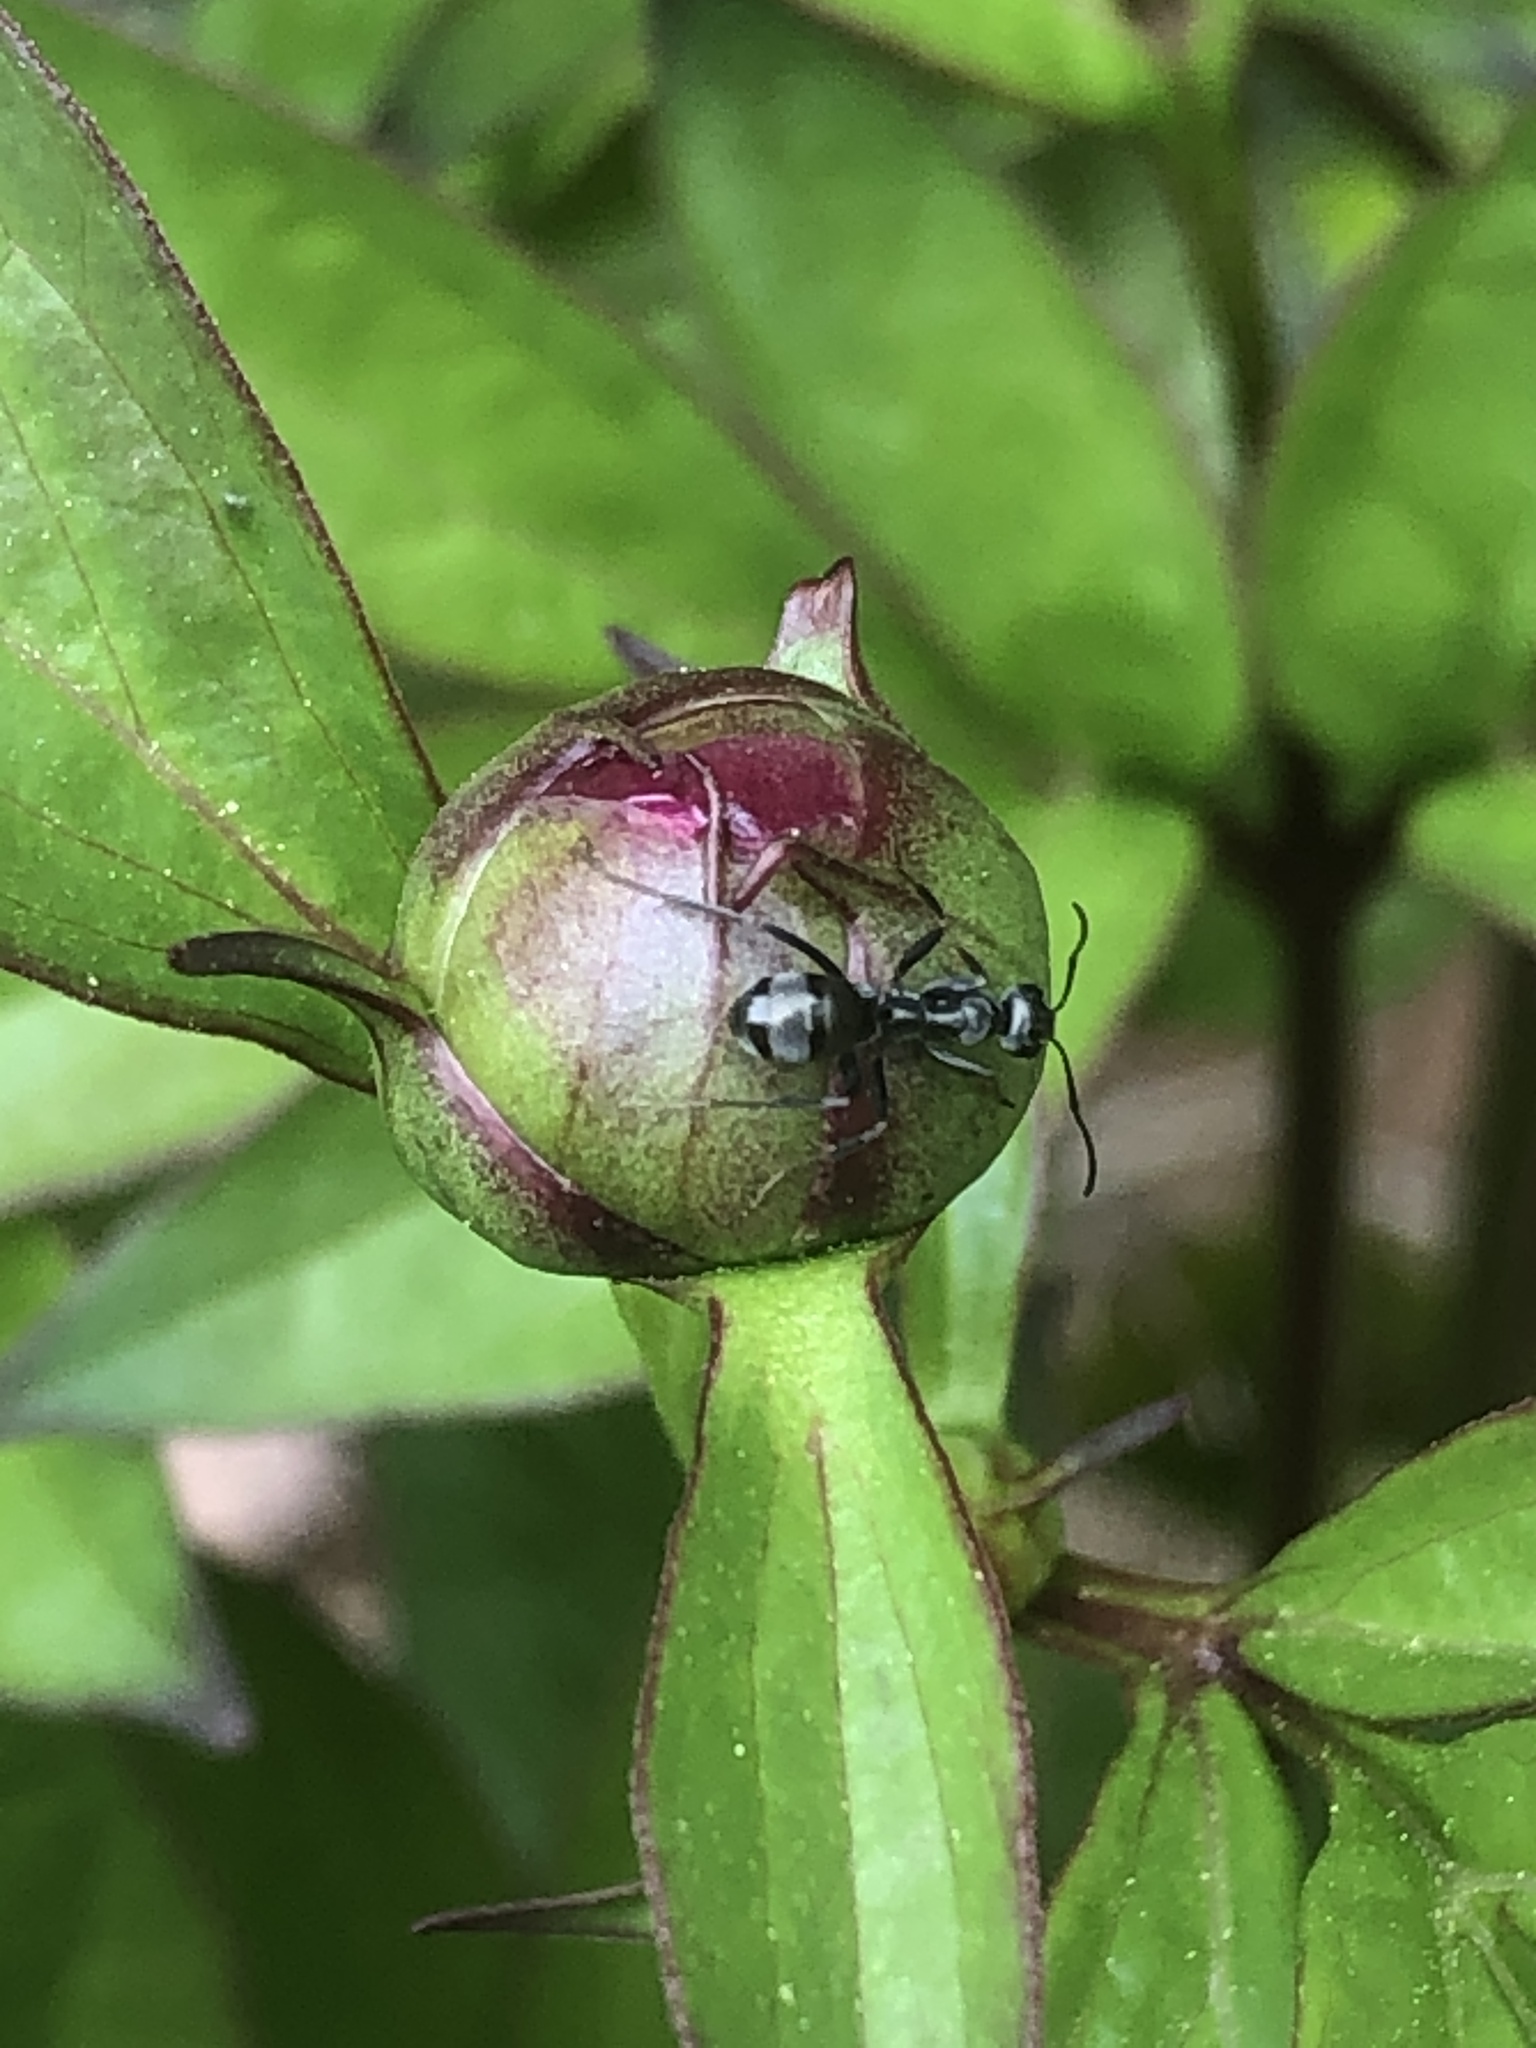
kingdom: Animalia
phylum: Arthropoda
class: Insecta
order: Hymenoptera
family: Formicidae
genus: Formica
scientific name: Formica
